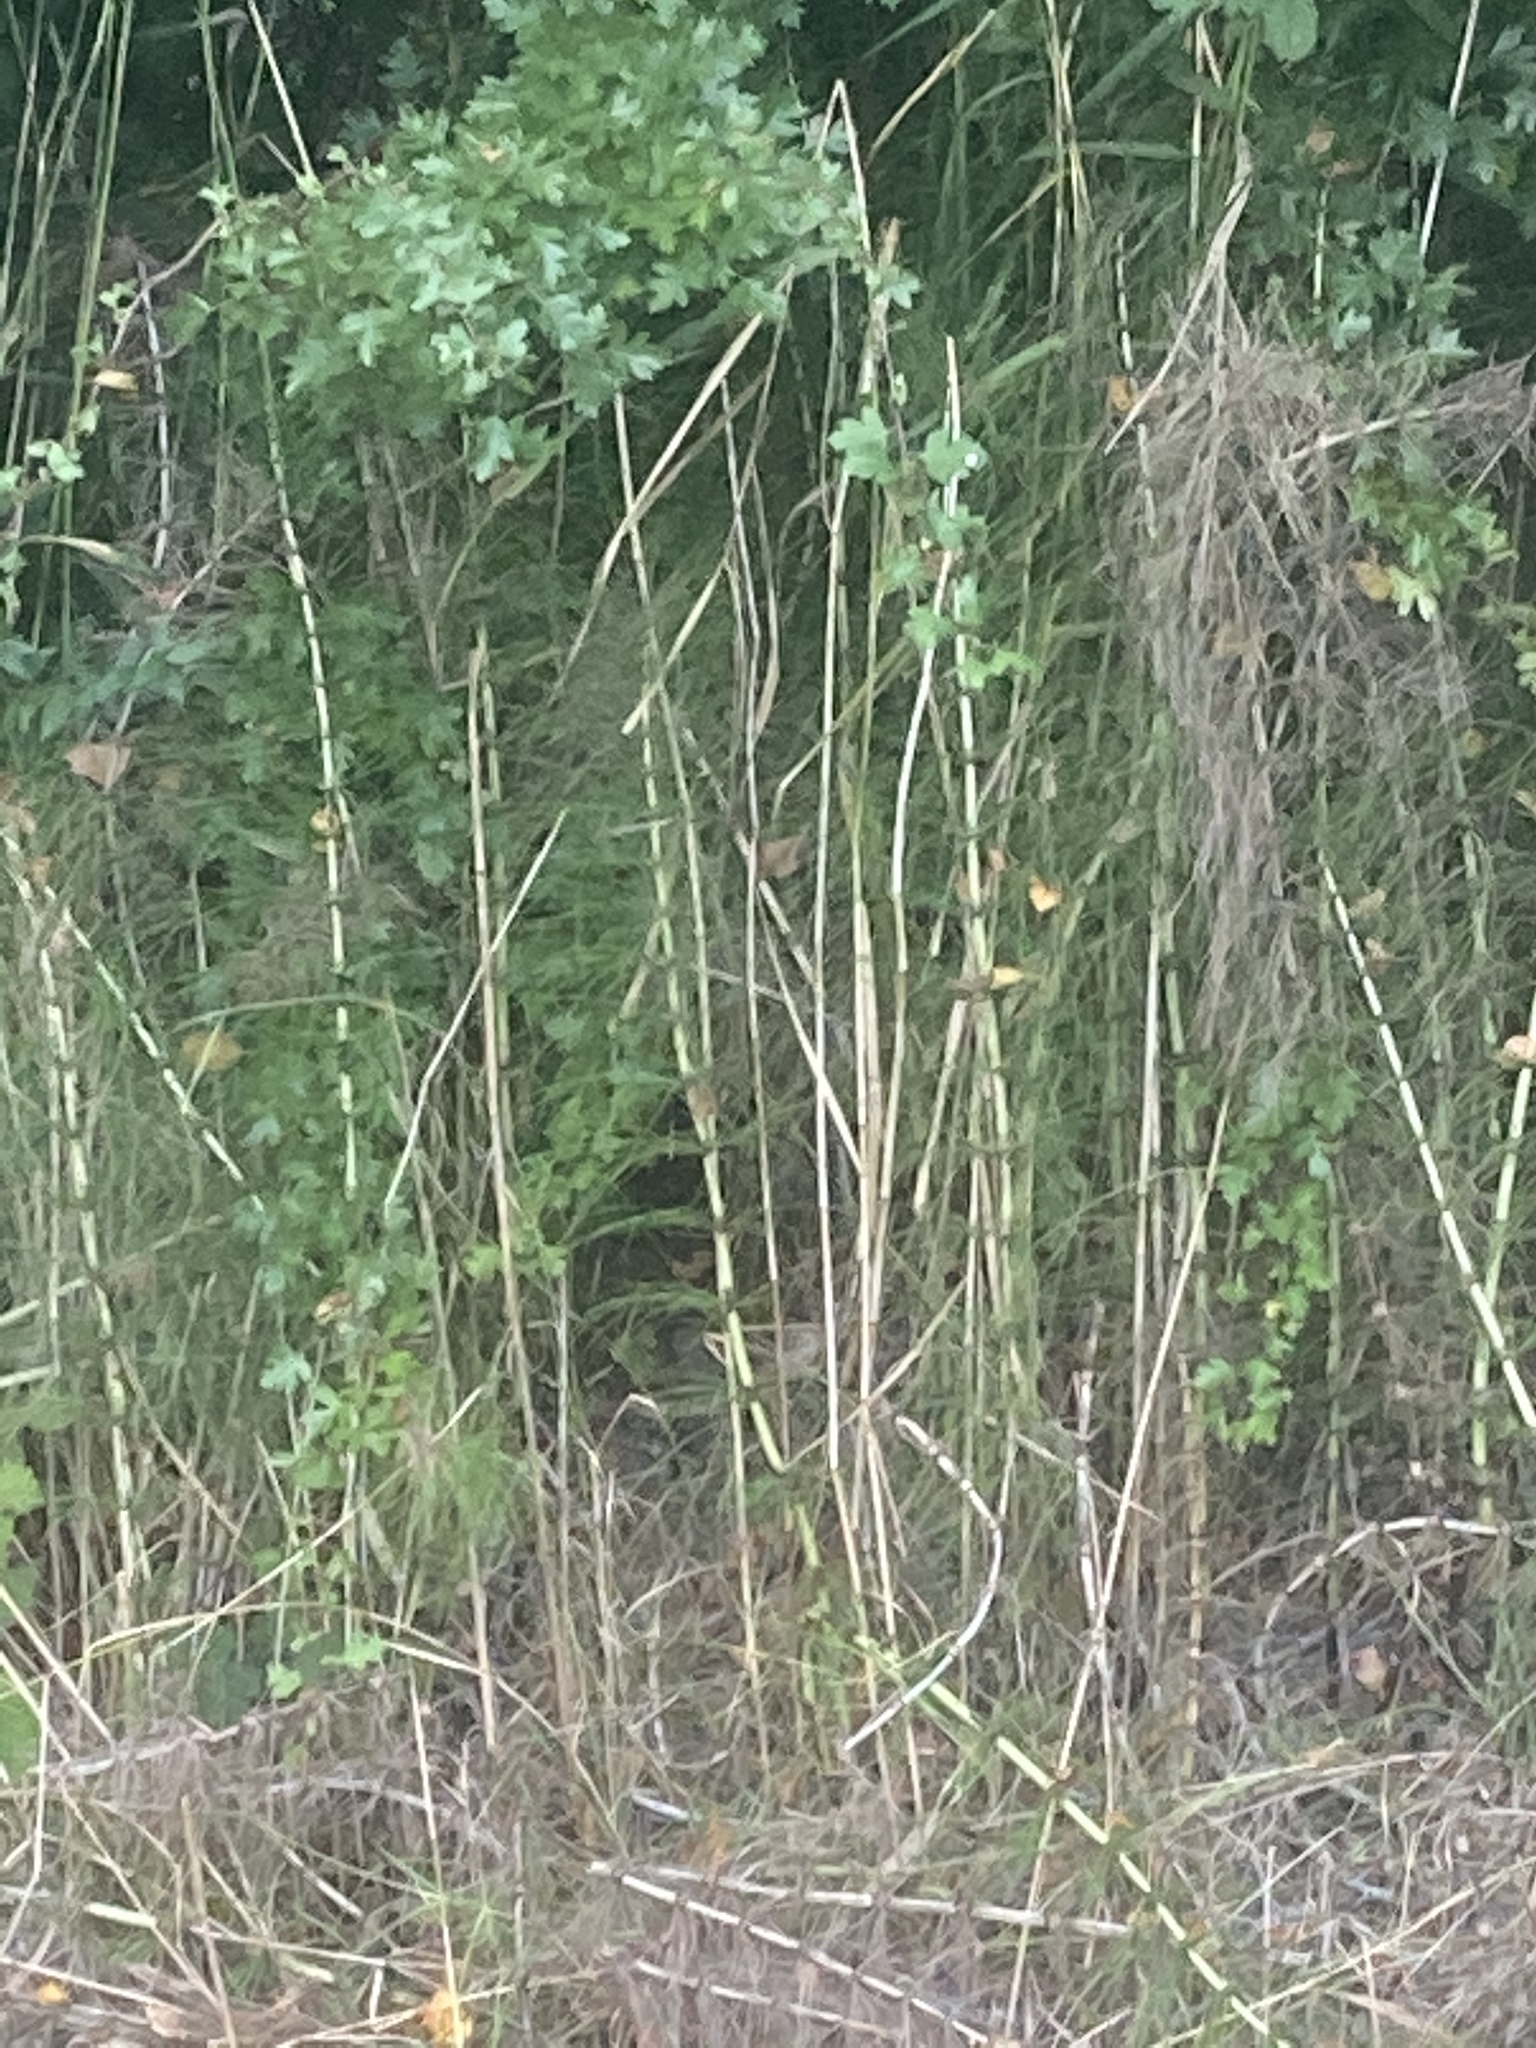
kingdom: Plantae
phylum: Tracheophyta
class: Polypodiopsida
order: Equisetales
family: Equisetaceae
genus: Equisetum
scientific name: Equisetum telmateia
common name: Great horsetail
